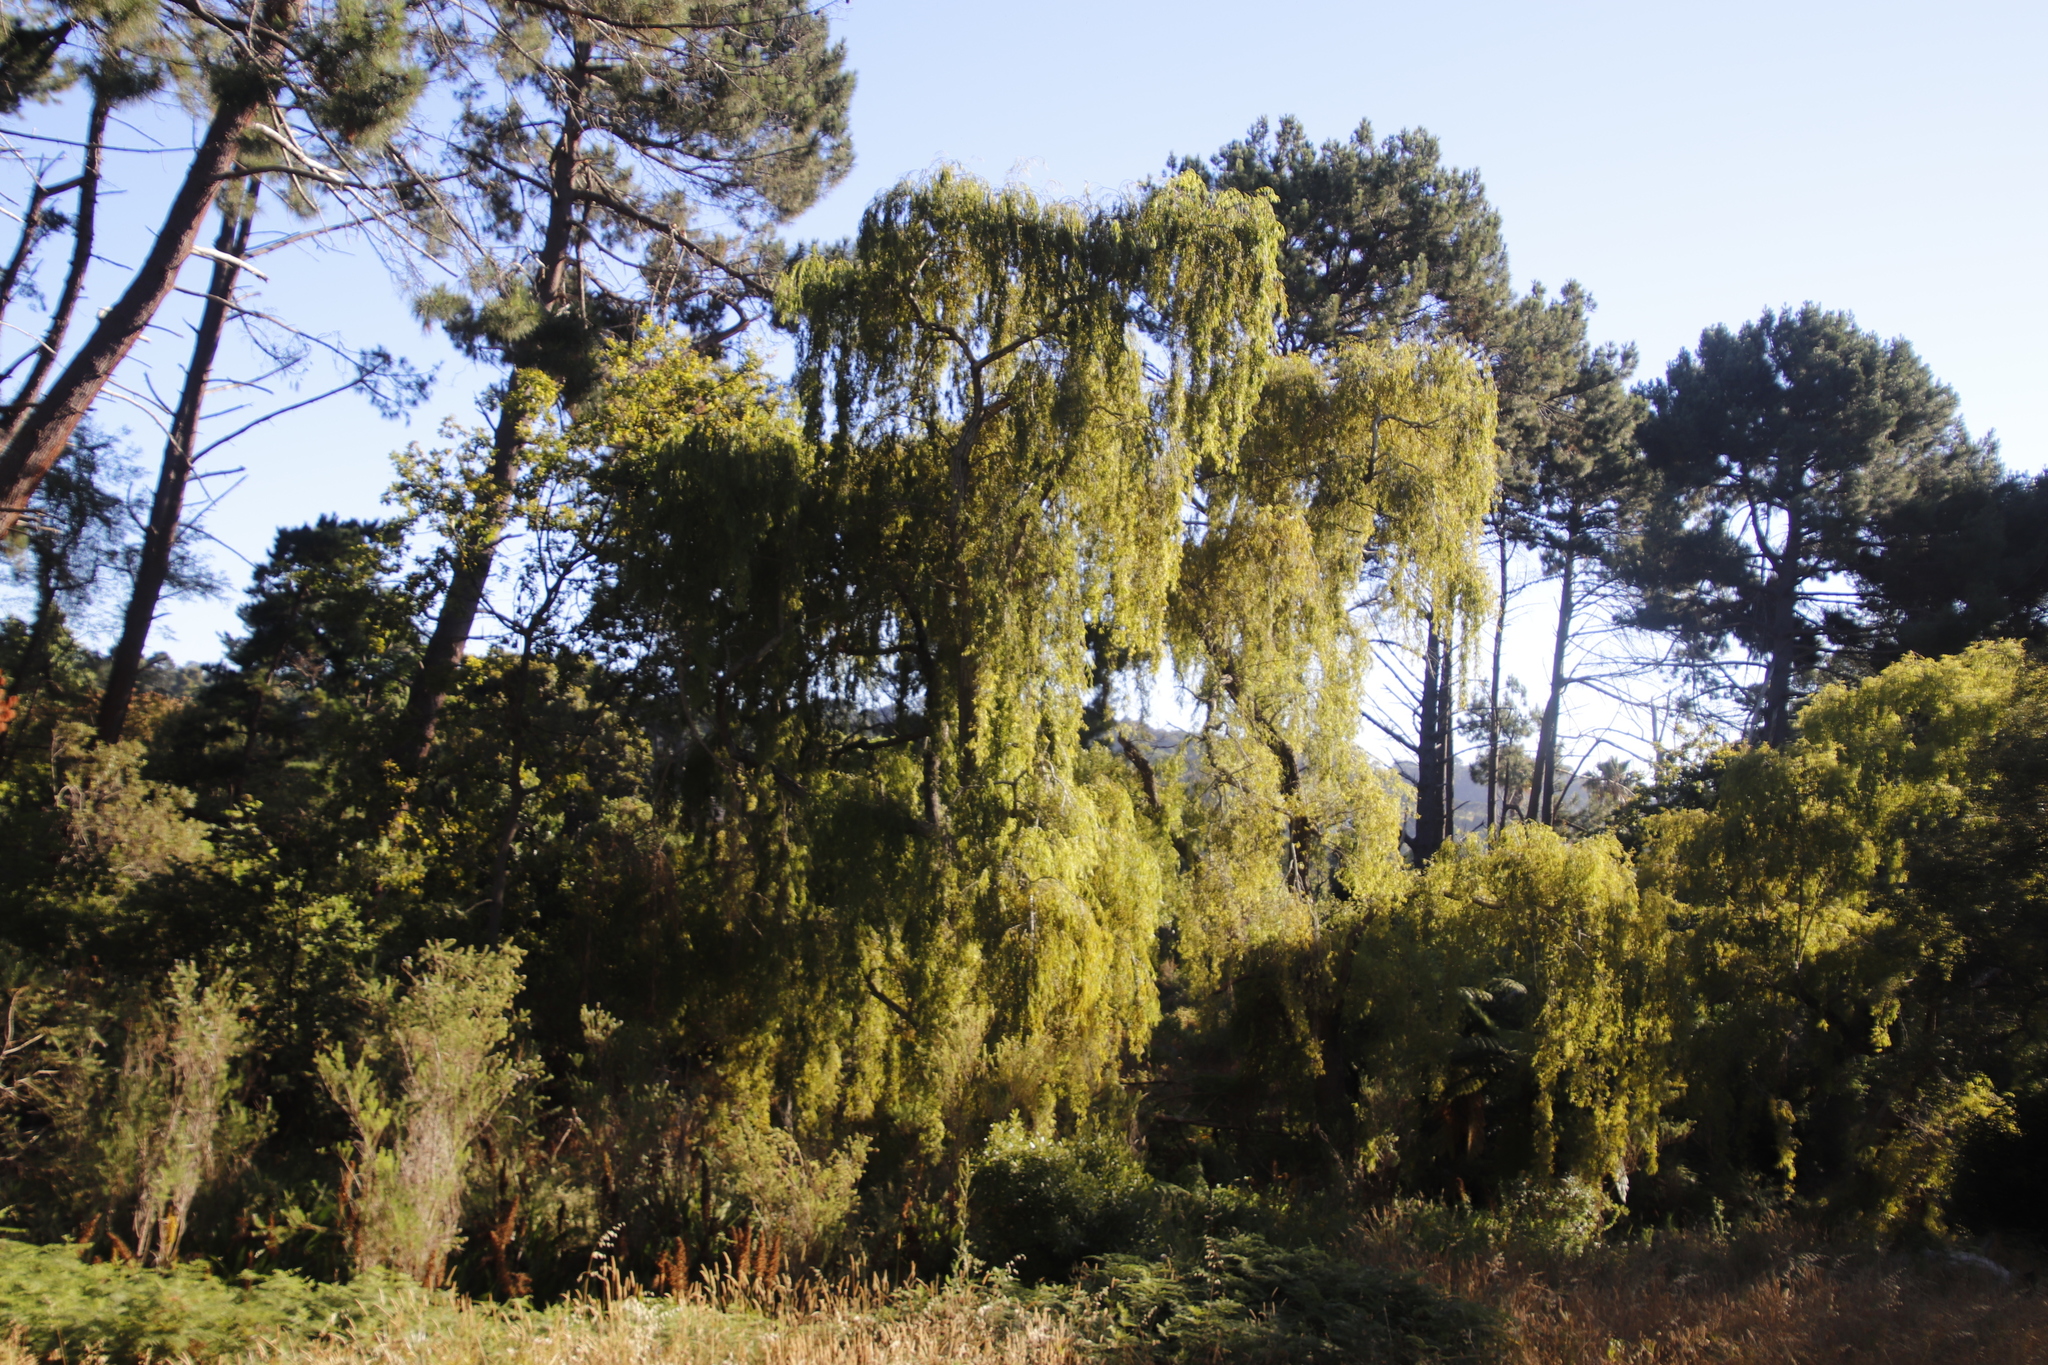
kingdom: Plantae
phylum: Tracheophyta
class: Magnoliopsida
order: Malpighiales
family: Salicaceae
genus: Salix
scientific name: Salix babylonica
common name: Weeping willow
